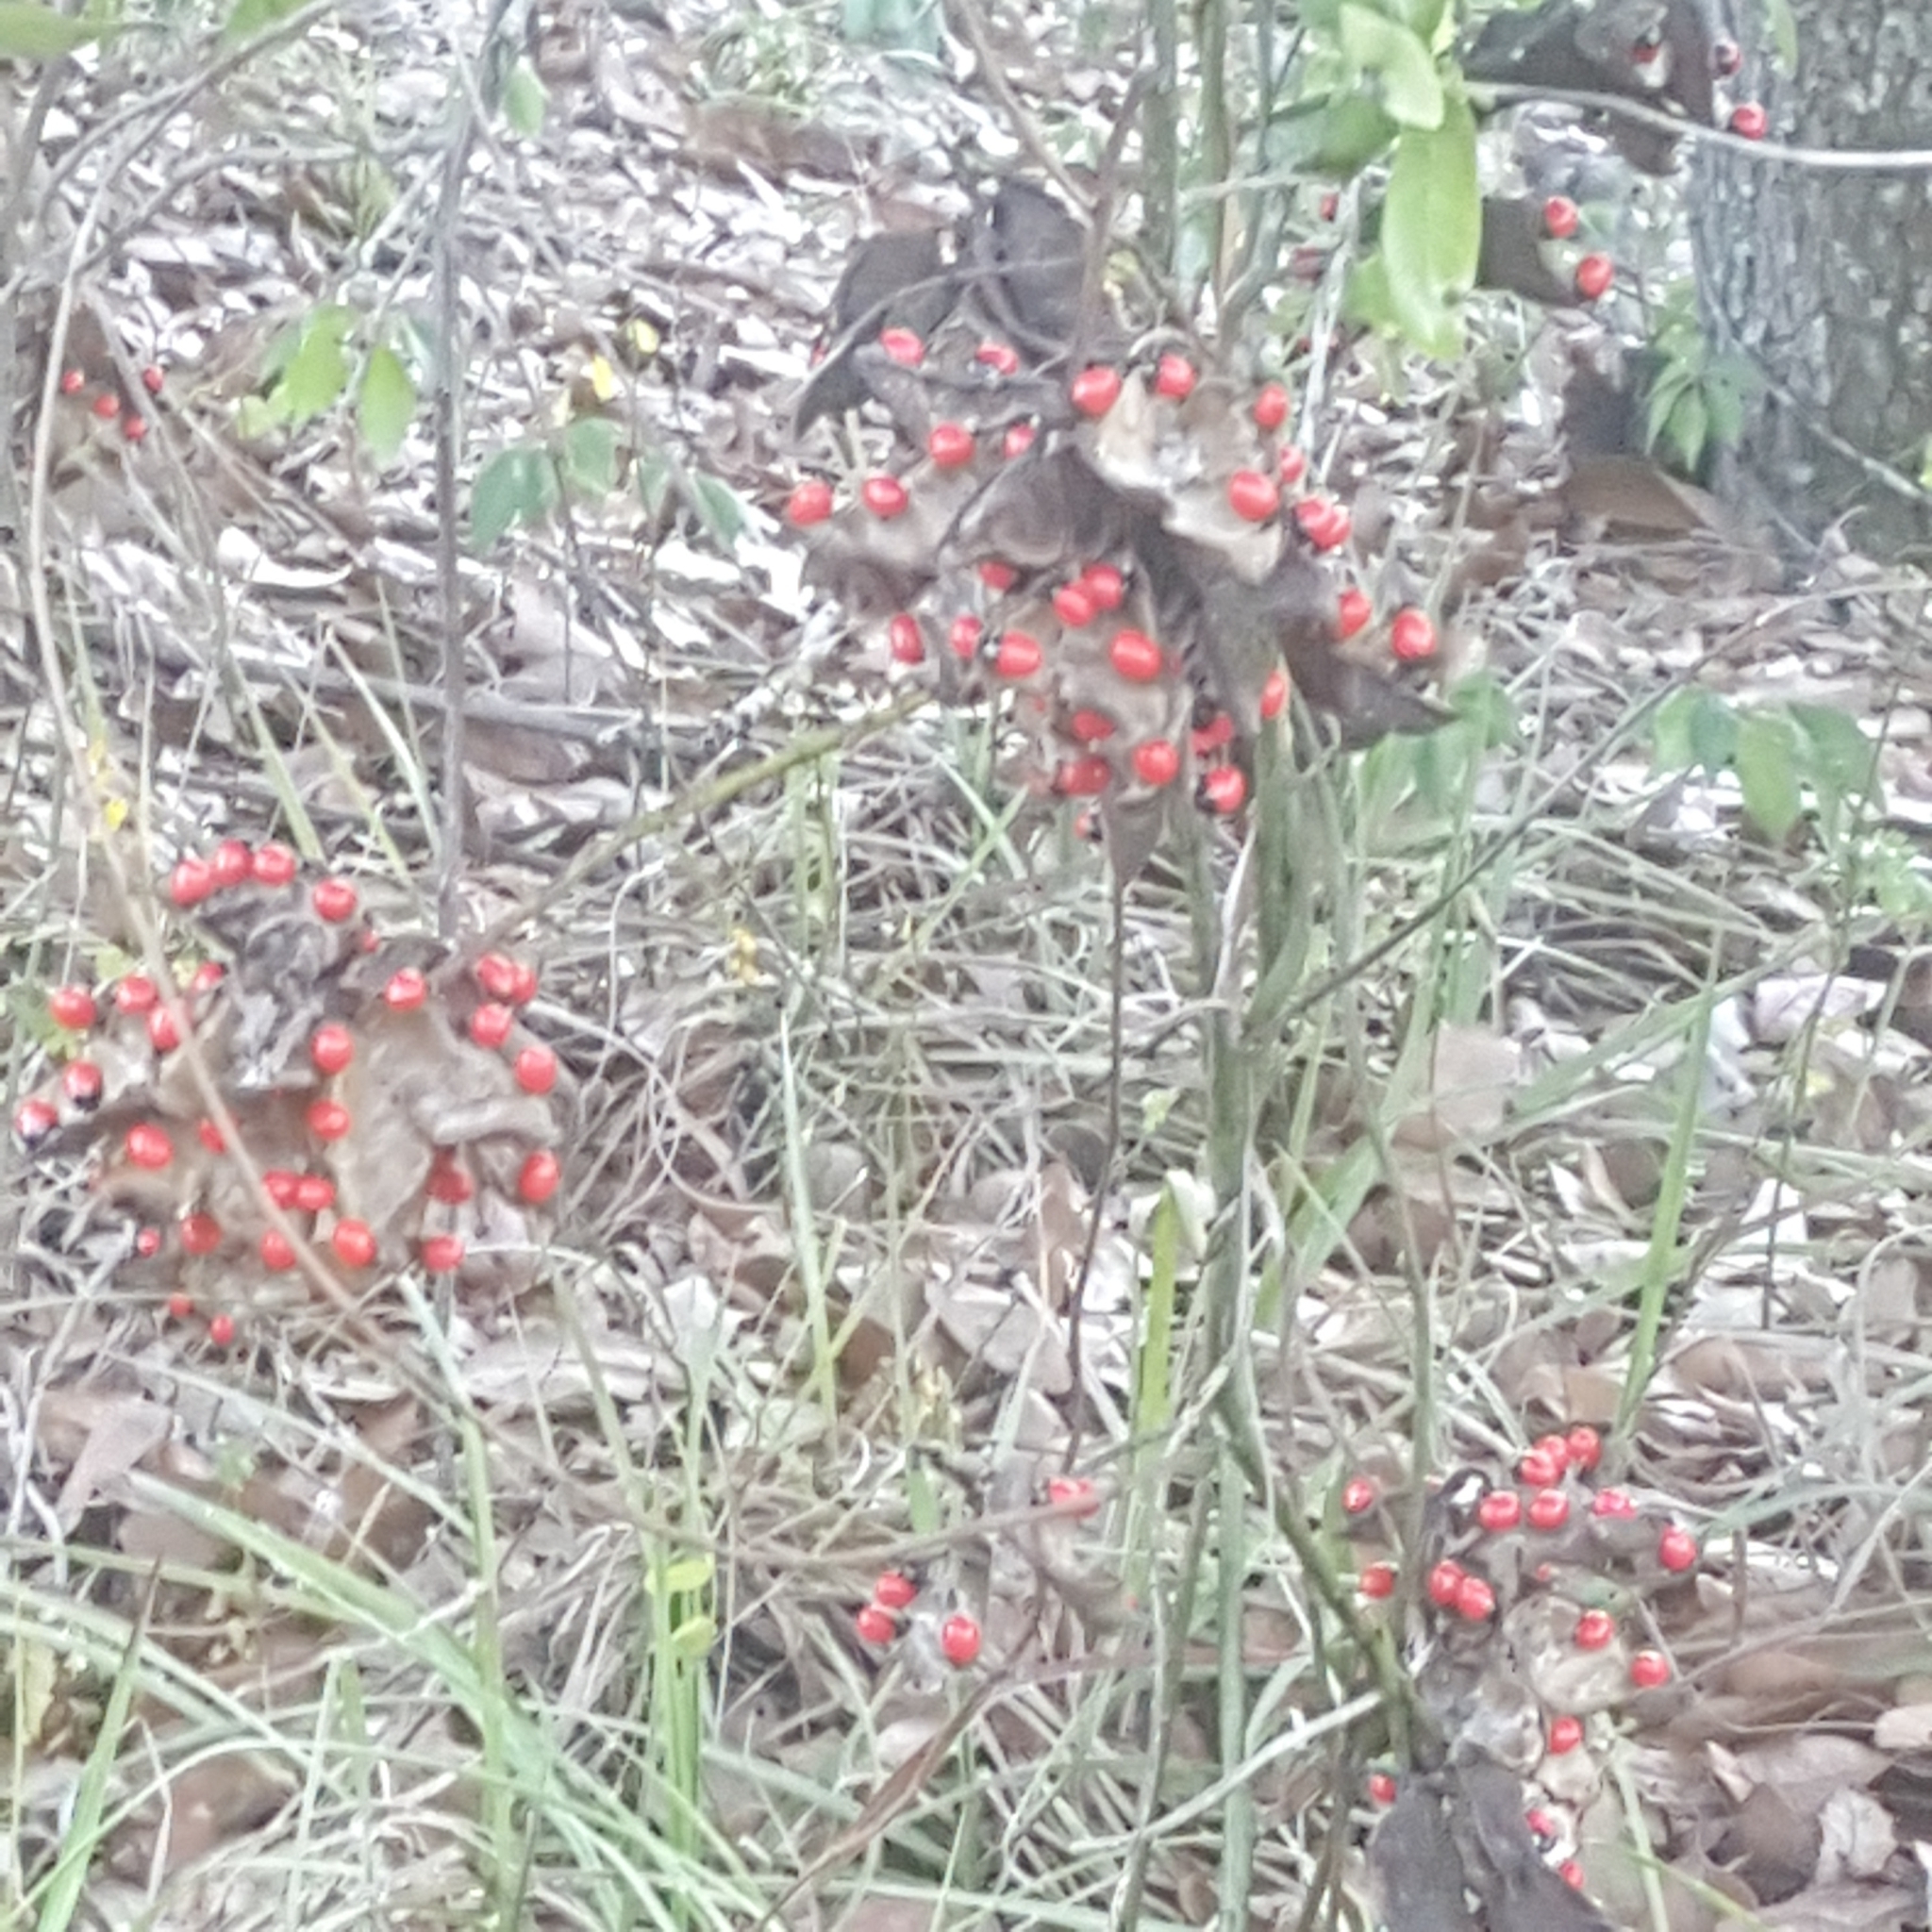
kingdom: Plantae
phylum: Tracheophyta
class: Magnoliopsida
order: Fabales
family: Fabaceae
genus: Abrus
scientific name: Abrus precatorius
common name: Rosarypea
